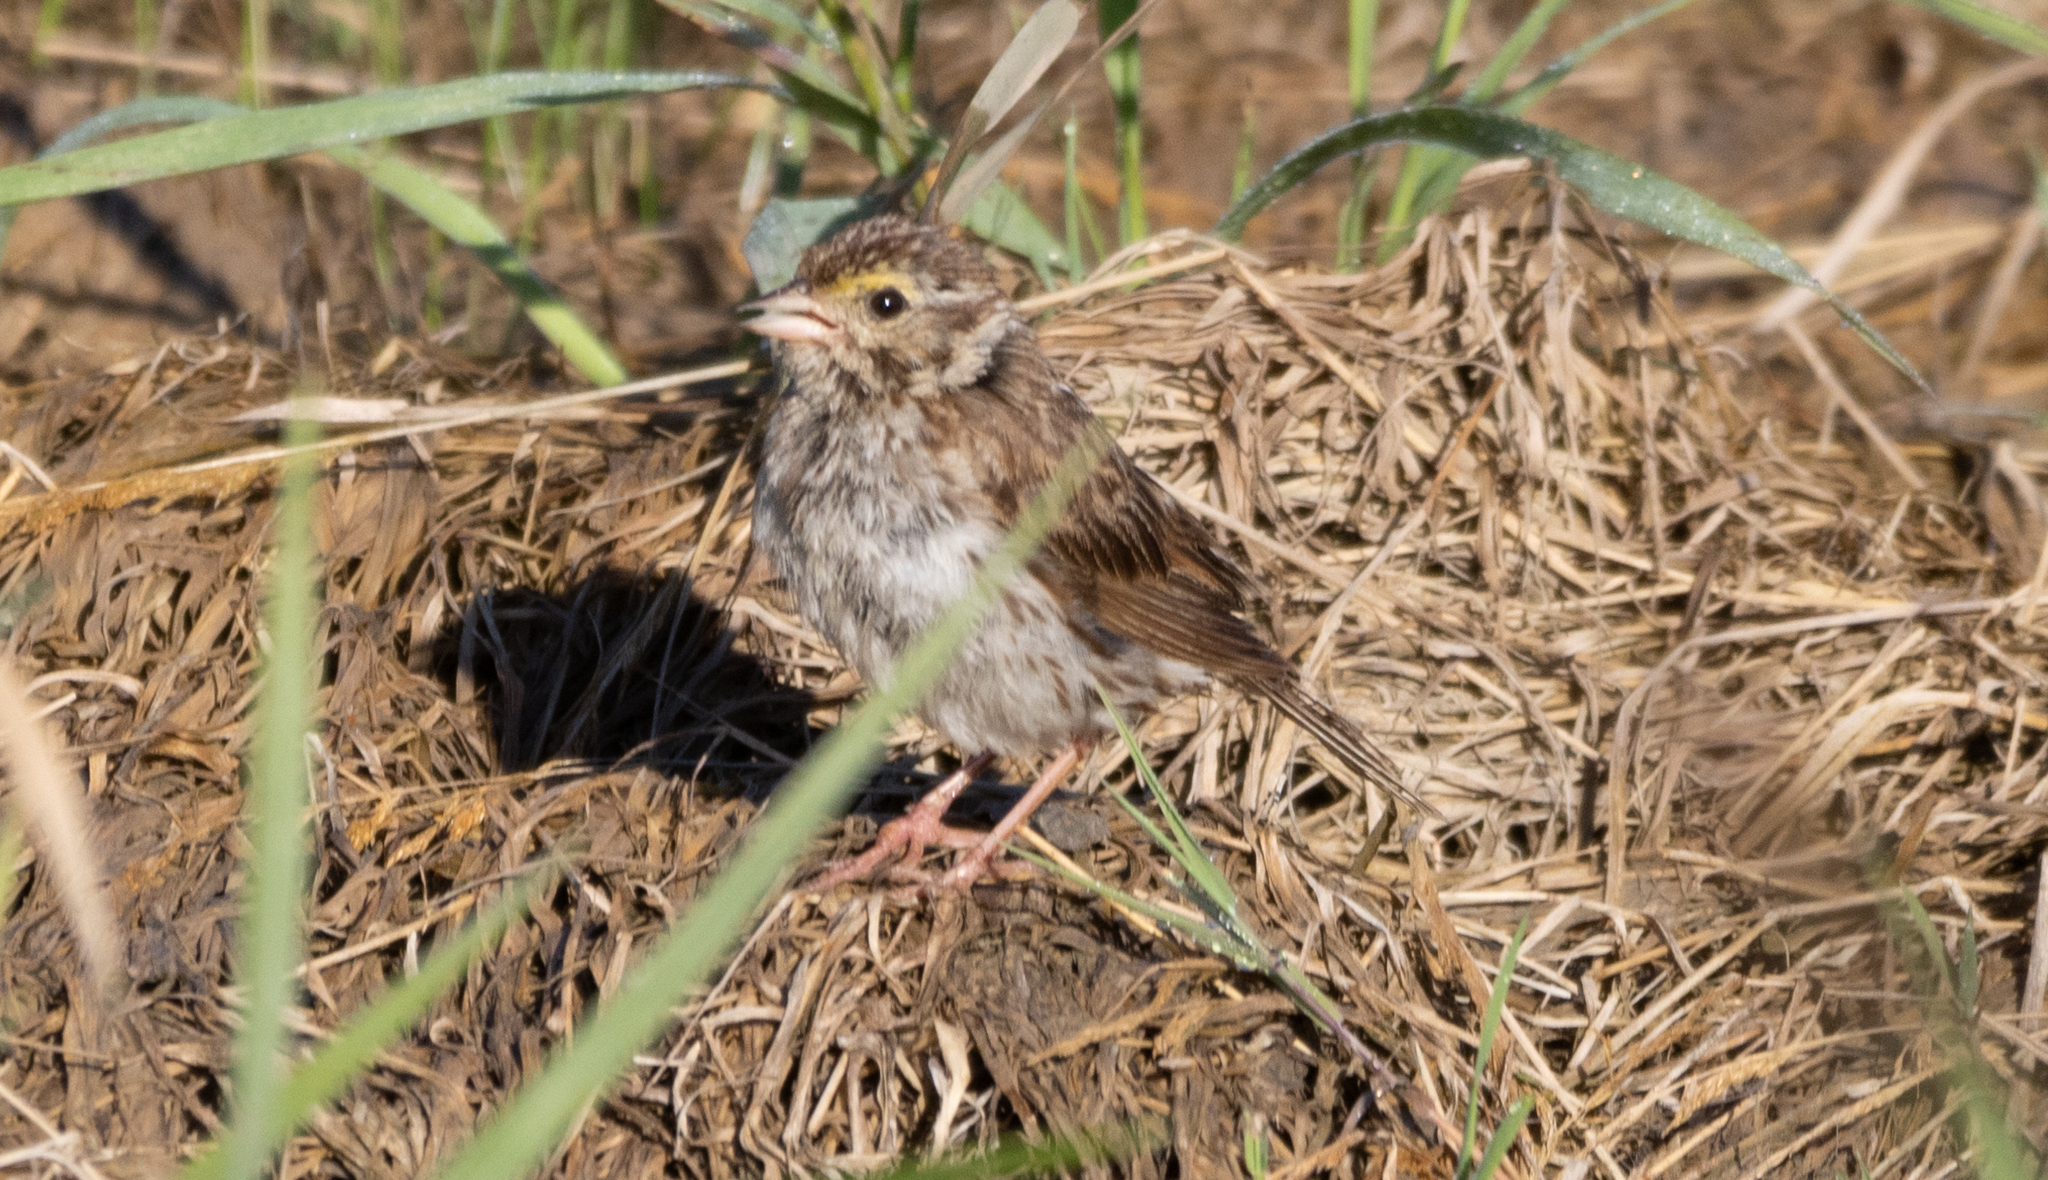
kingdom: Animalia
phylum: Chordata
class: Aves
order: Passeriformes
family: Passerellidae
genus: Passerculus
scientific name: Passerculus sandwichensis
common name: Savannah sparrow
